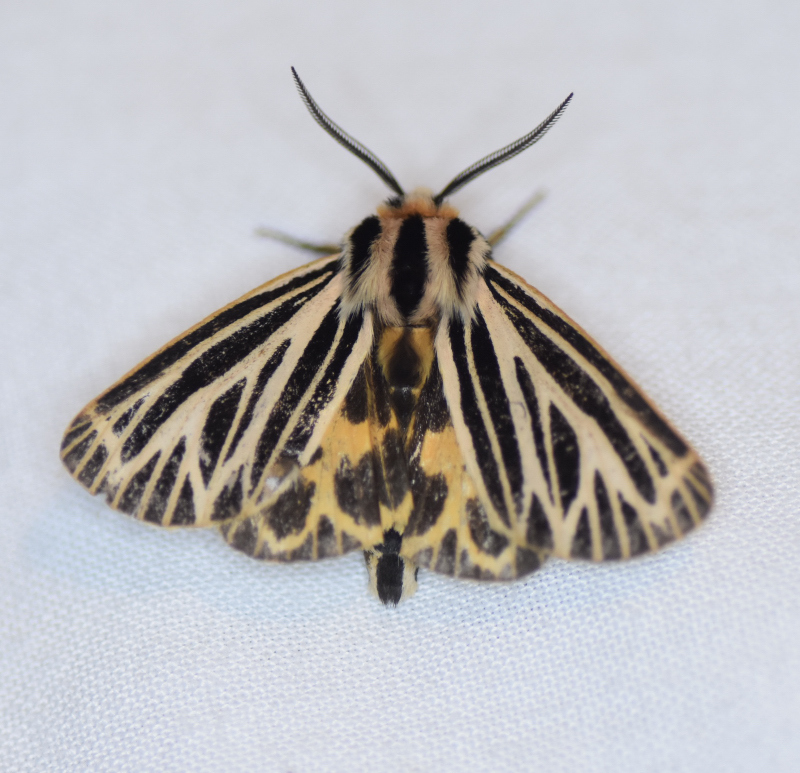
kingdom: Animalia
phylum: Arthropoda
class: Insecta
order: Lepidoptera
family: Erebidae
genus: Grammia
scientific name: Grammia virguncula
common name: Little tiger moth
